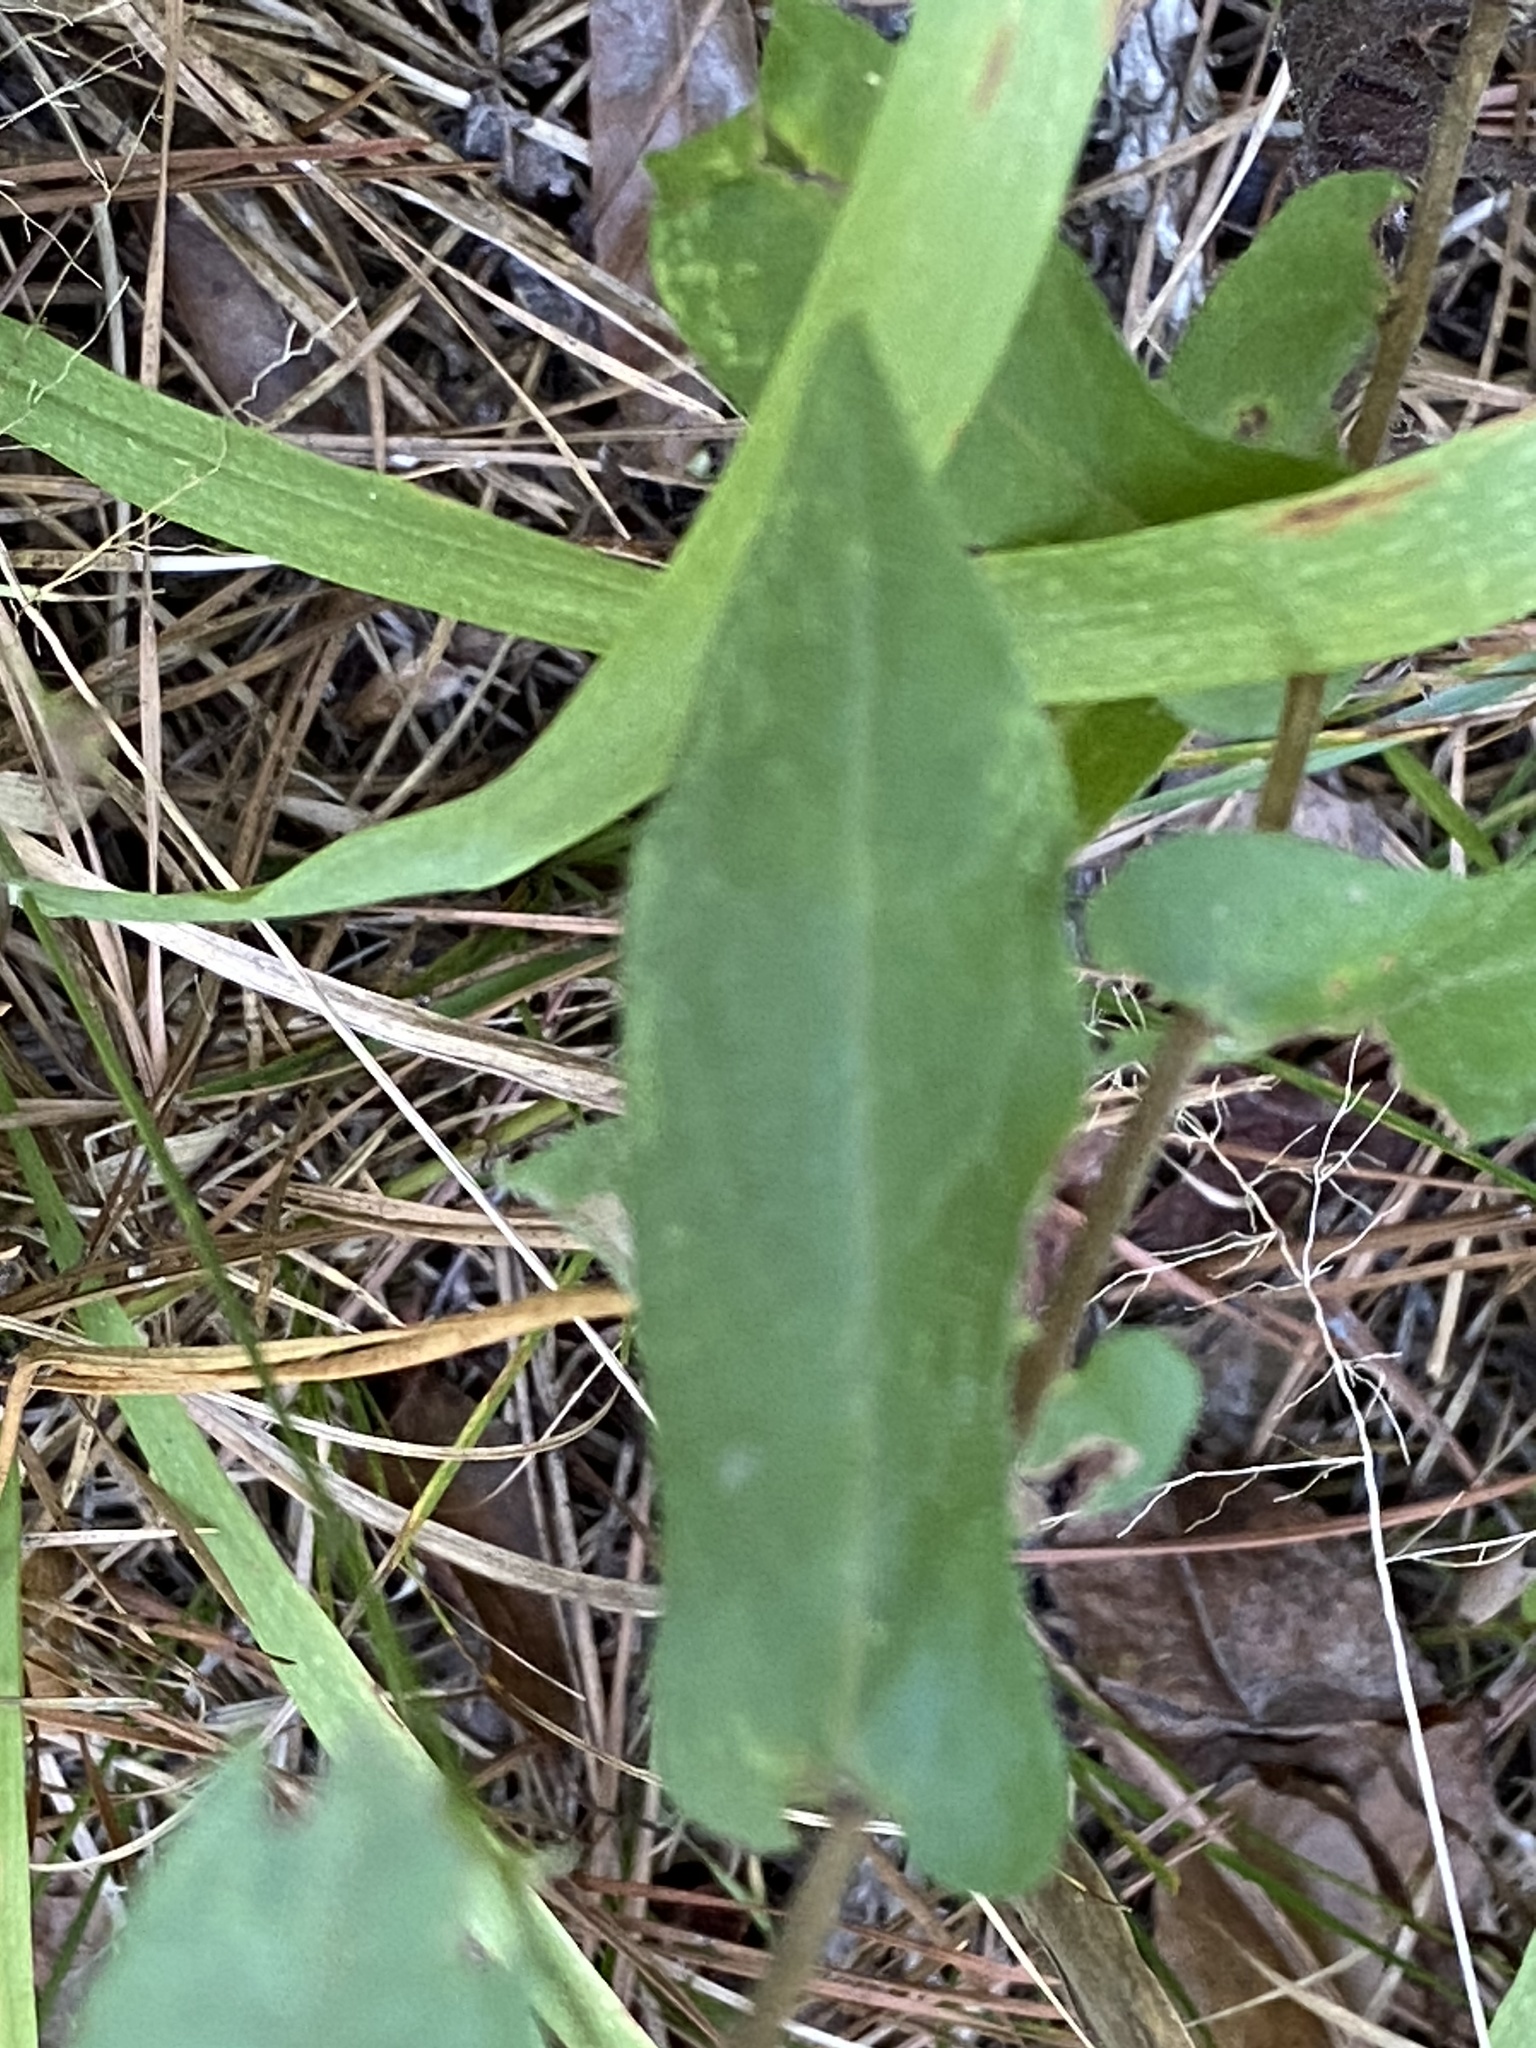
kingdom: Plantae
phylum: Tracheophyta
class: Magnoliopsida
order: Asterales
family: Asteraceae
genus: Symphyotrichum
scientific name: Symphyotrichum patens
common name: Late purple aster
